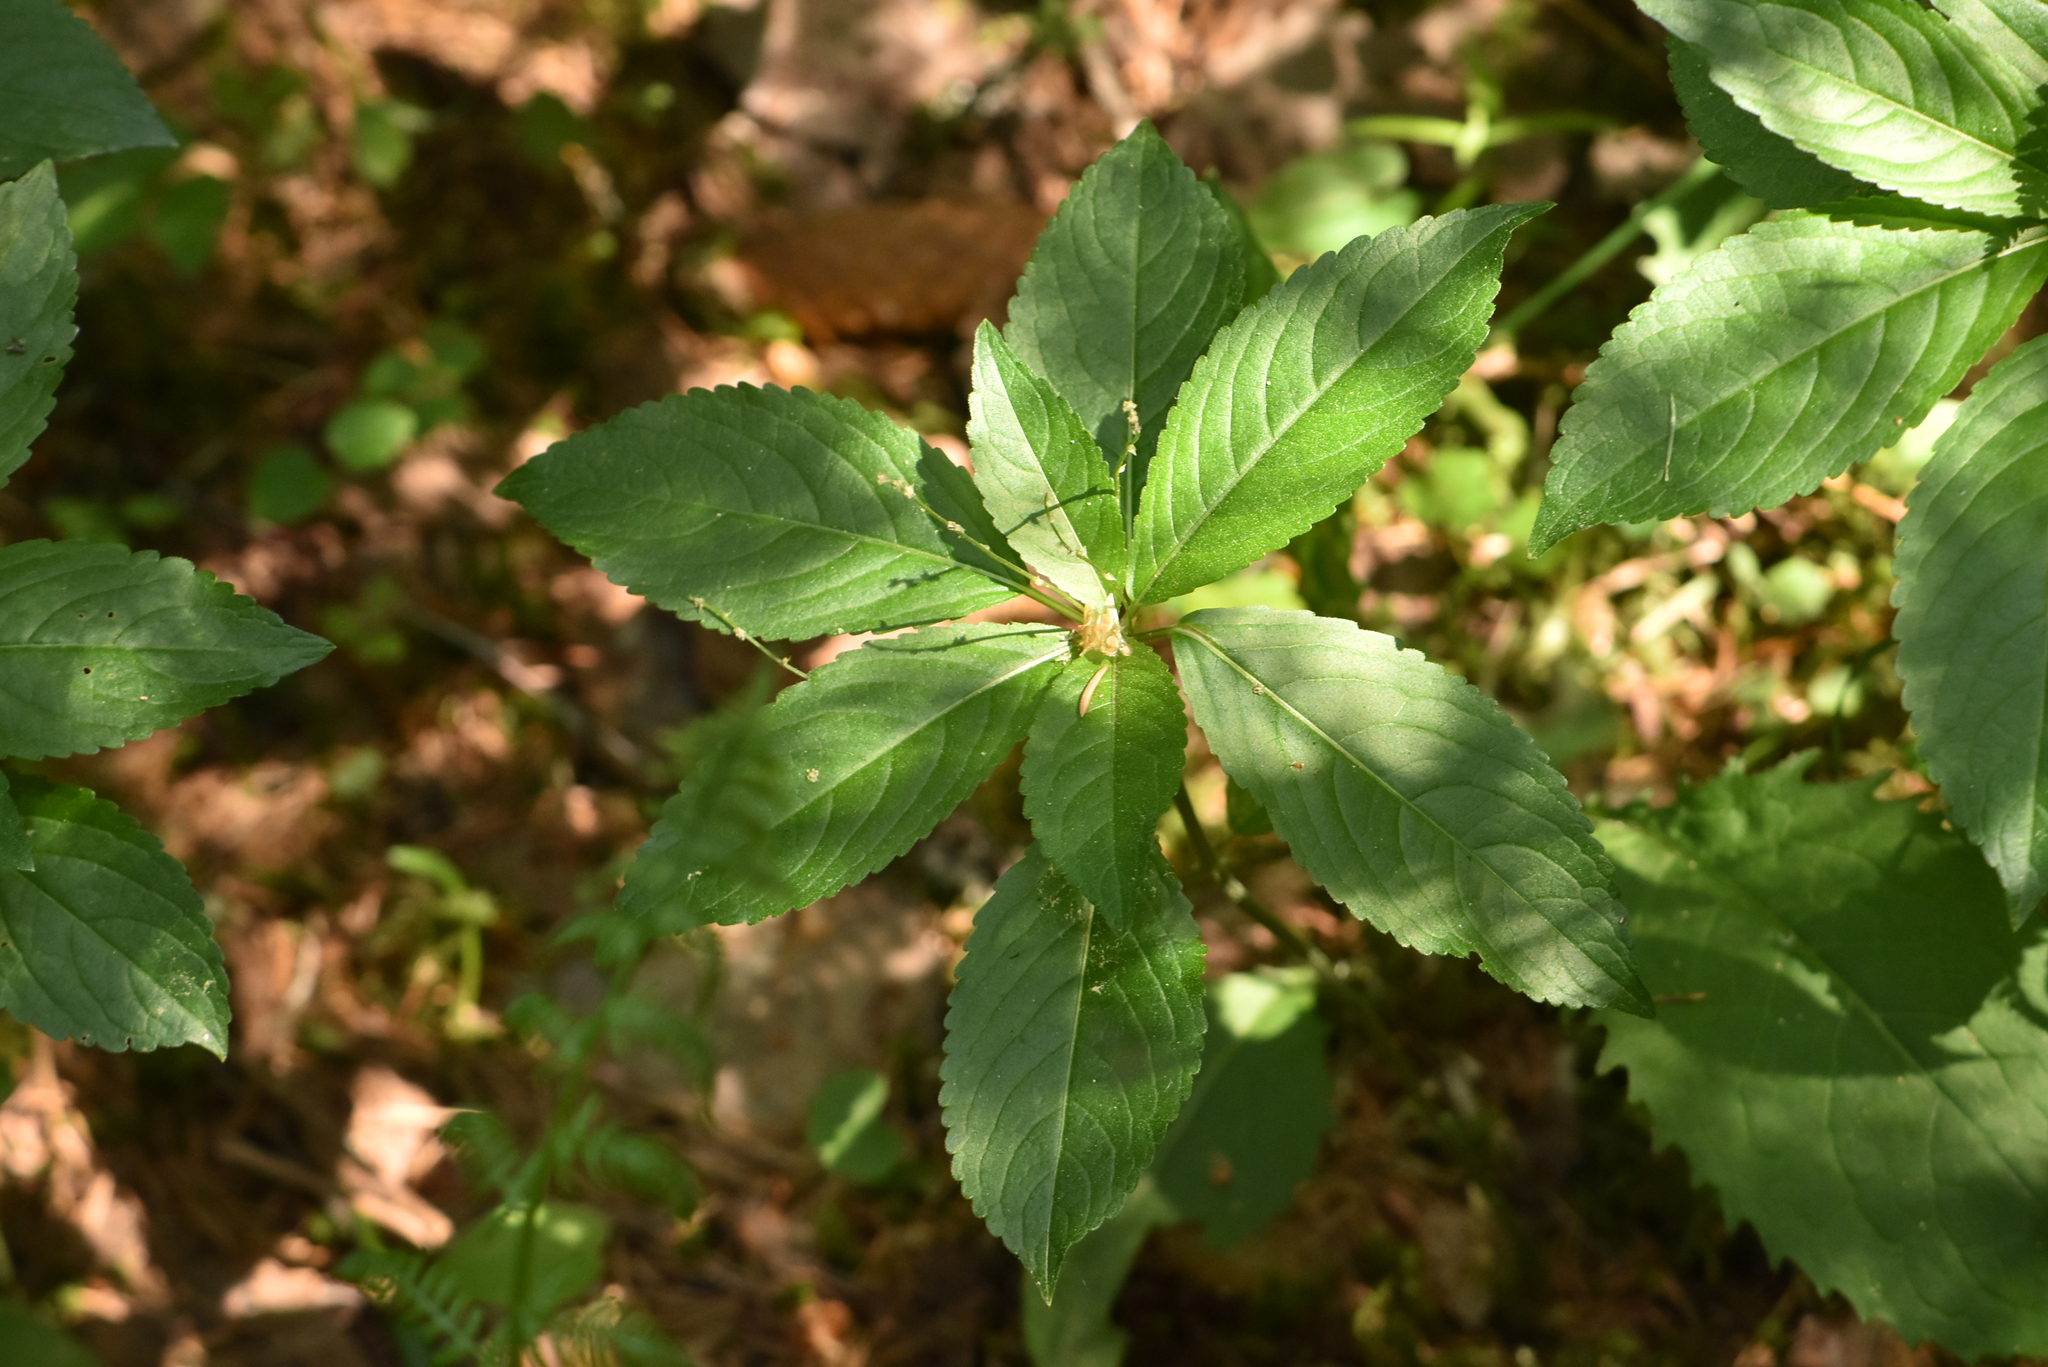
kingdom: Plantae
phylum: Tracheophyta
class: Magnoliopsida
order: Malpighiales
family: Euphorbiaceae
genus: Mercurialis
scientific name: Mercurialis perennis
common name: Dog mercury
